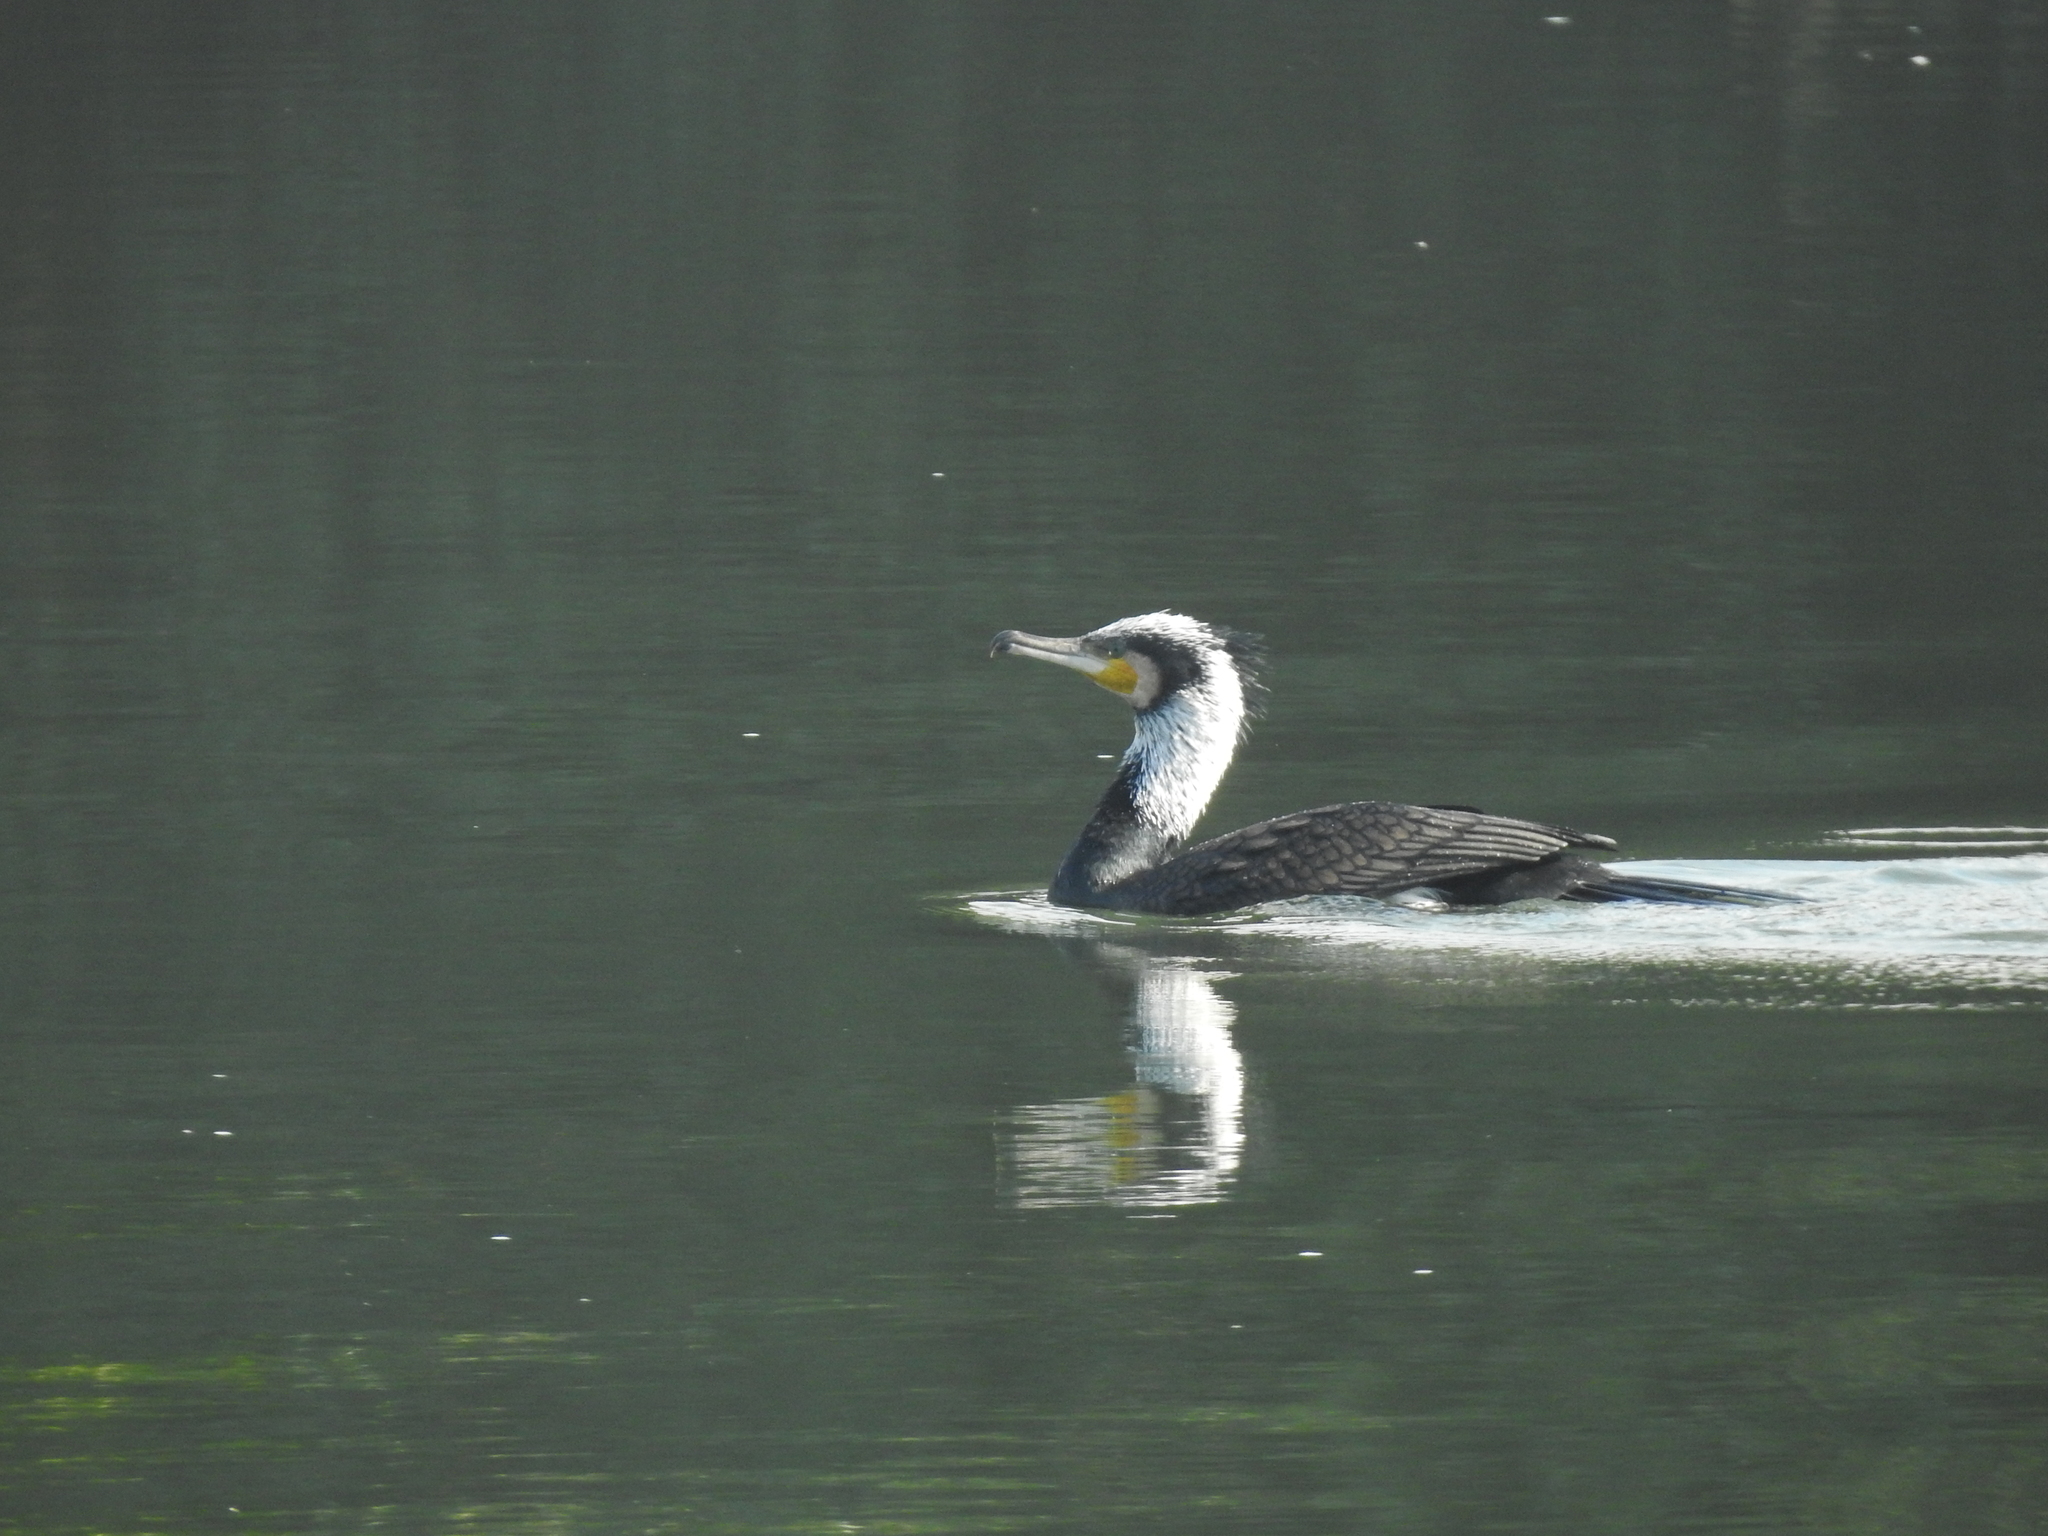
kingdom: Animalia
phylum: Chordata
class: Aves
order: Suliformes
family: Phalacrocoracidae
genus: Phalacrocorax
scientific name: Phalacrocorax carbo
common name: Great cormorant
